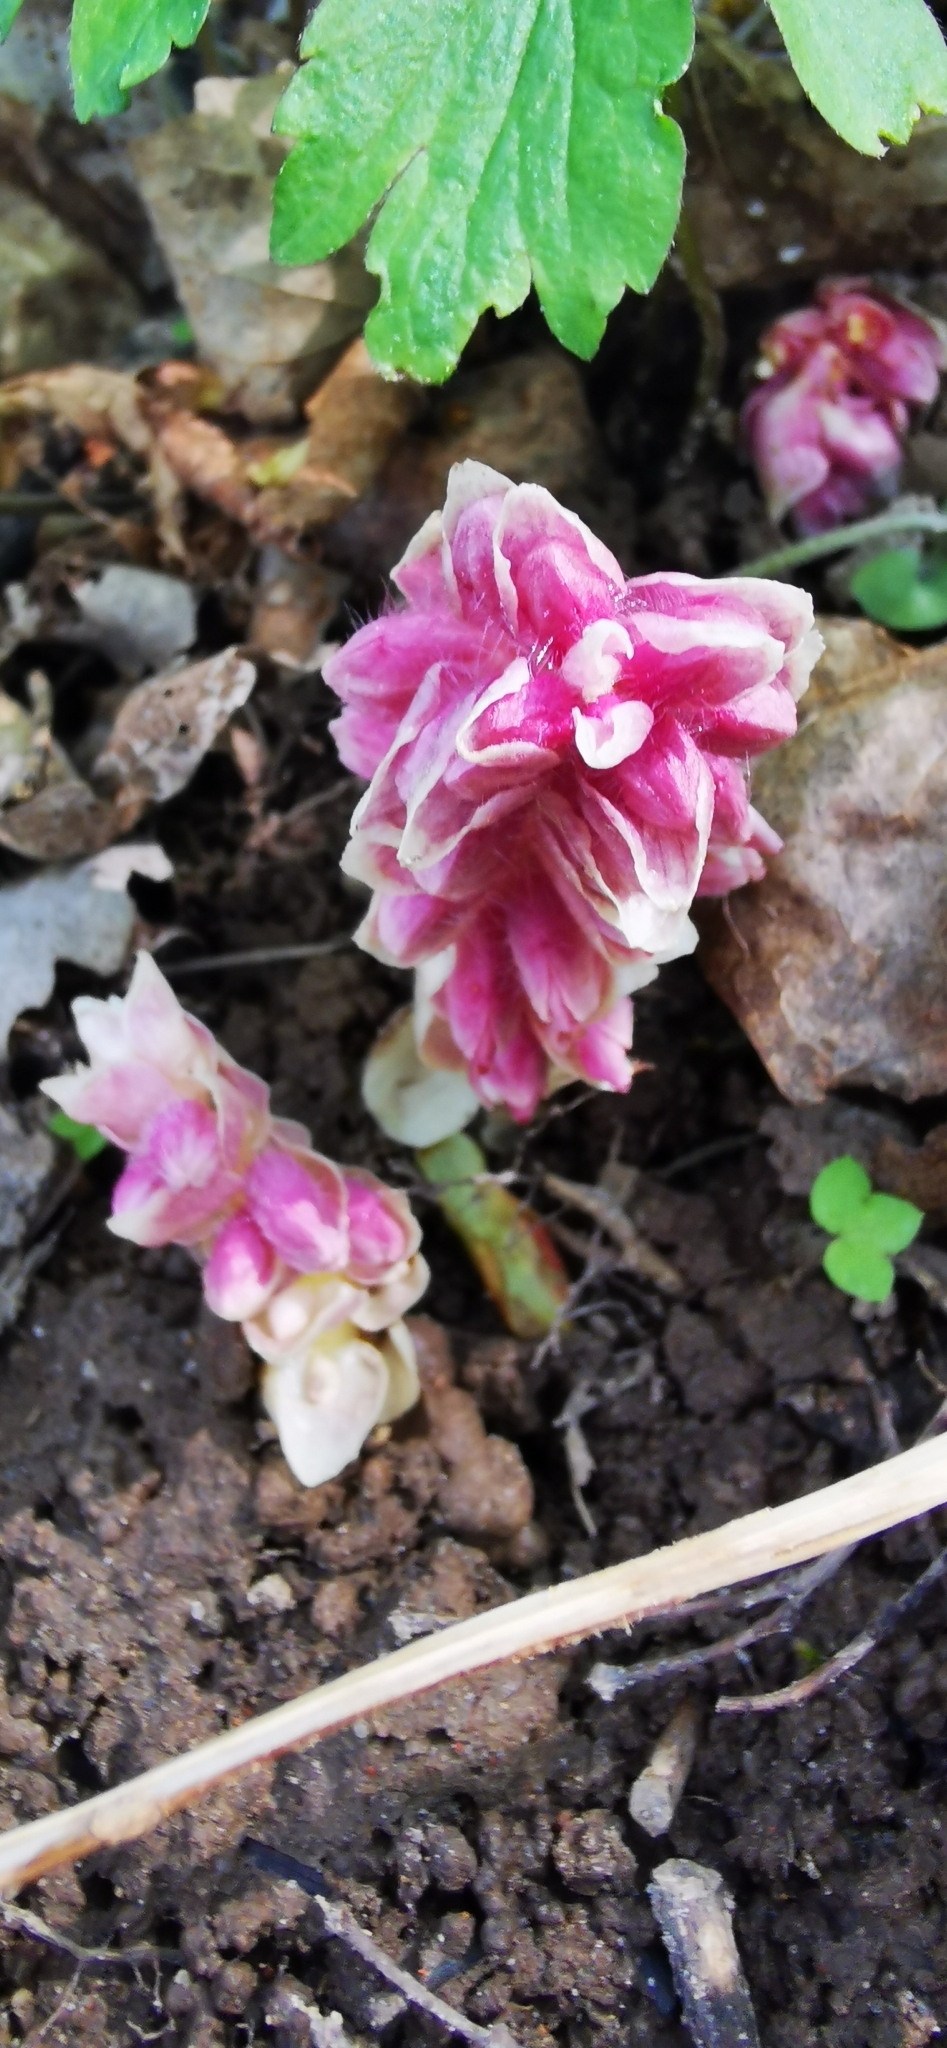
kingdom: Plantae
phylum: Tracheophyta
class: Magnoliopsida
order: Lamiales
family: Orobanchaceae
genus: Lathraea
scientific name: Lathraea squamaria
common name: Toothwort
